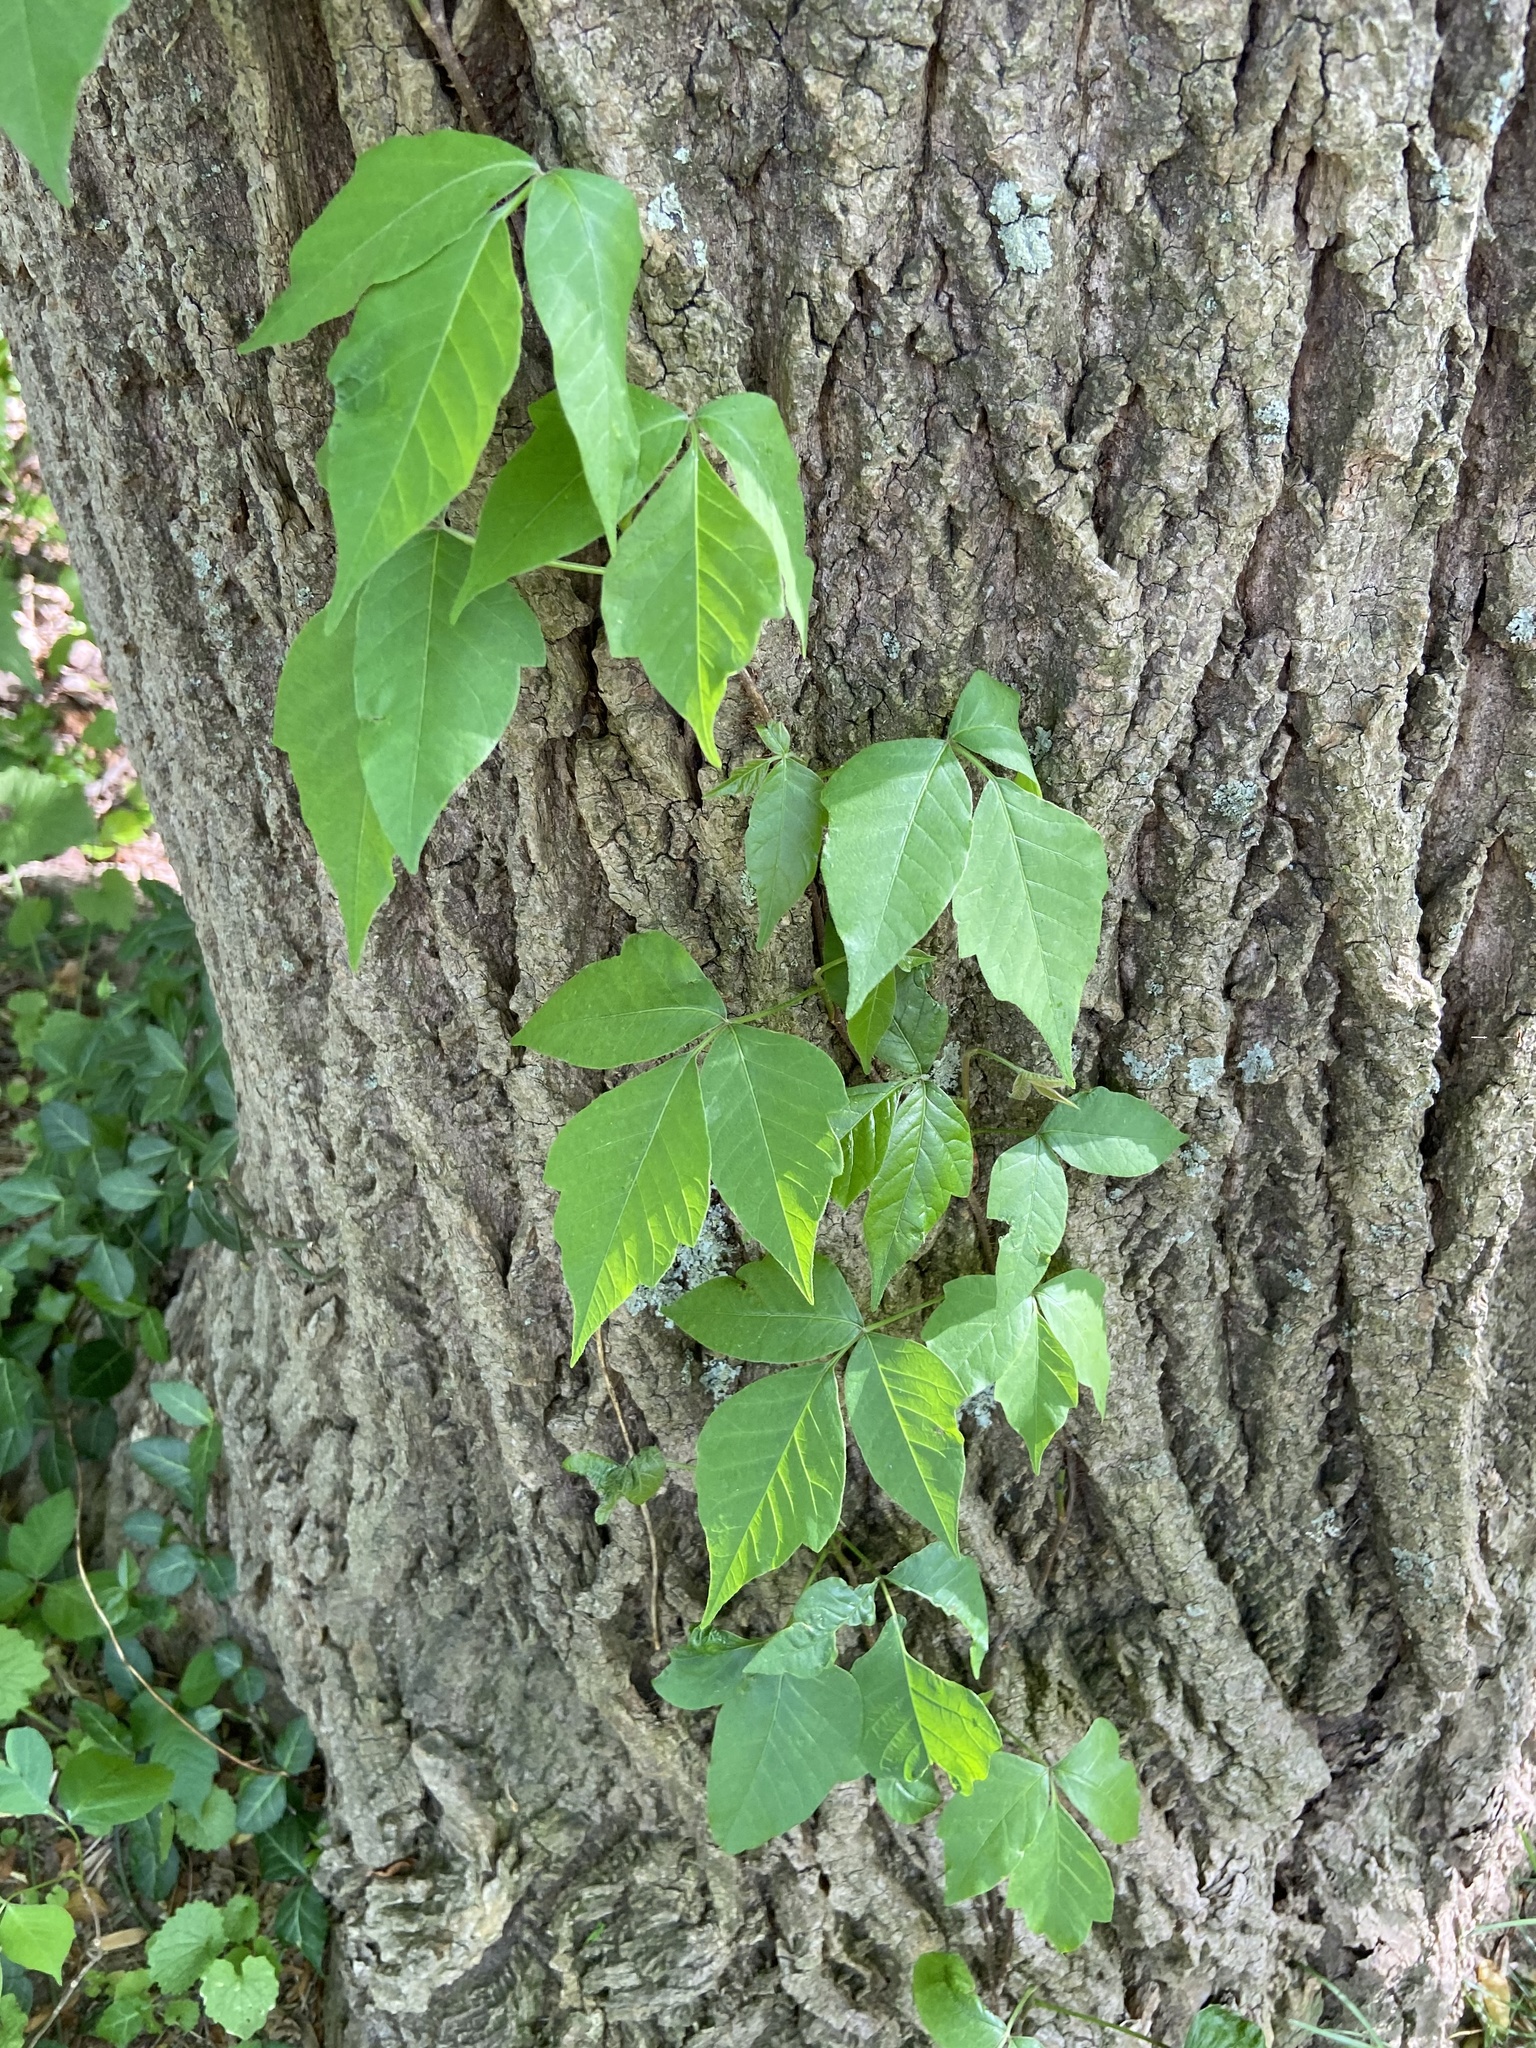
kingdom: Plantae
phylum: Tracheophyta
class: Magnoliopsida
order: Sapindales
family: Anacardiaceae
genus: Toxicodendron
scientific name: Toxicodendron radicans
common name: Poison ivy
